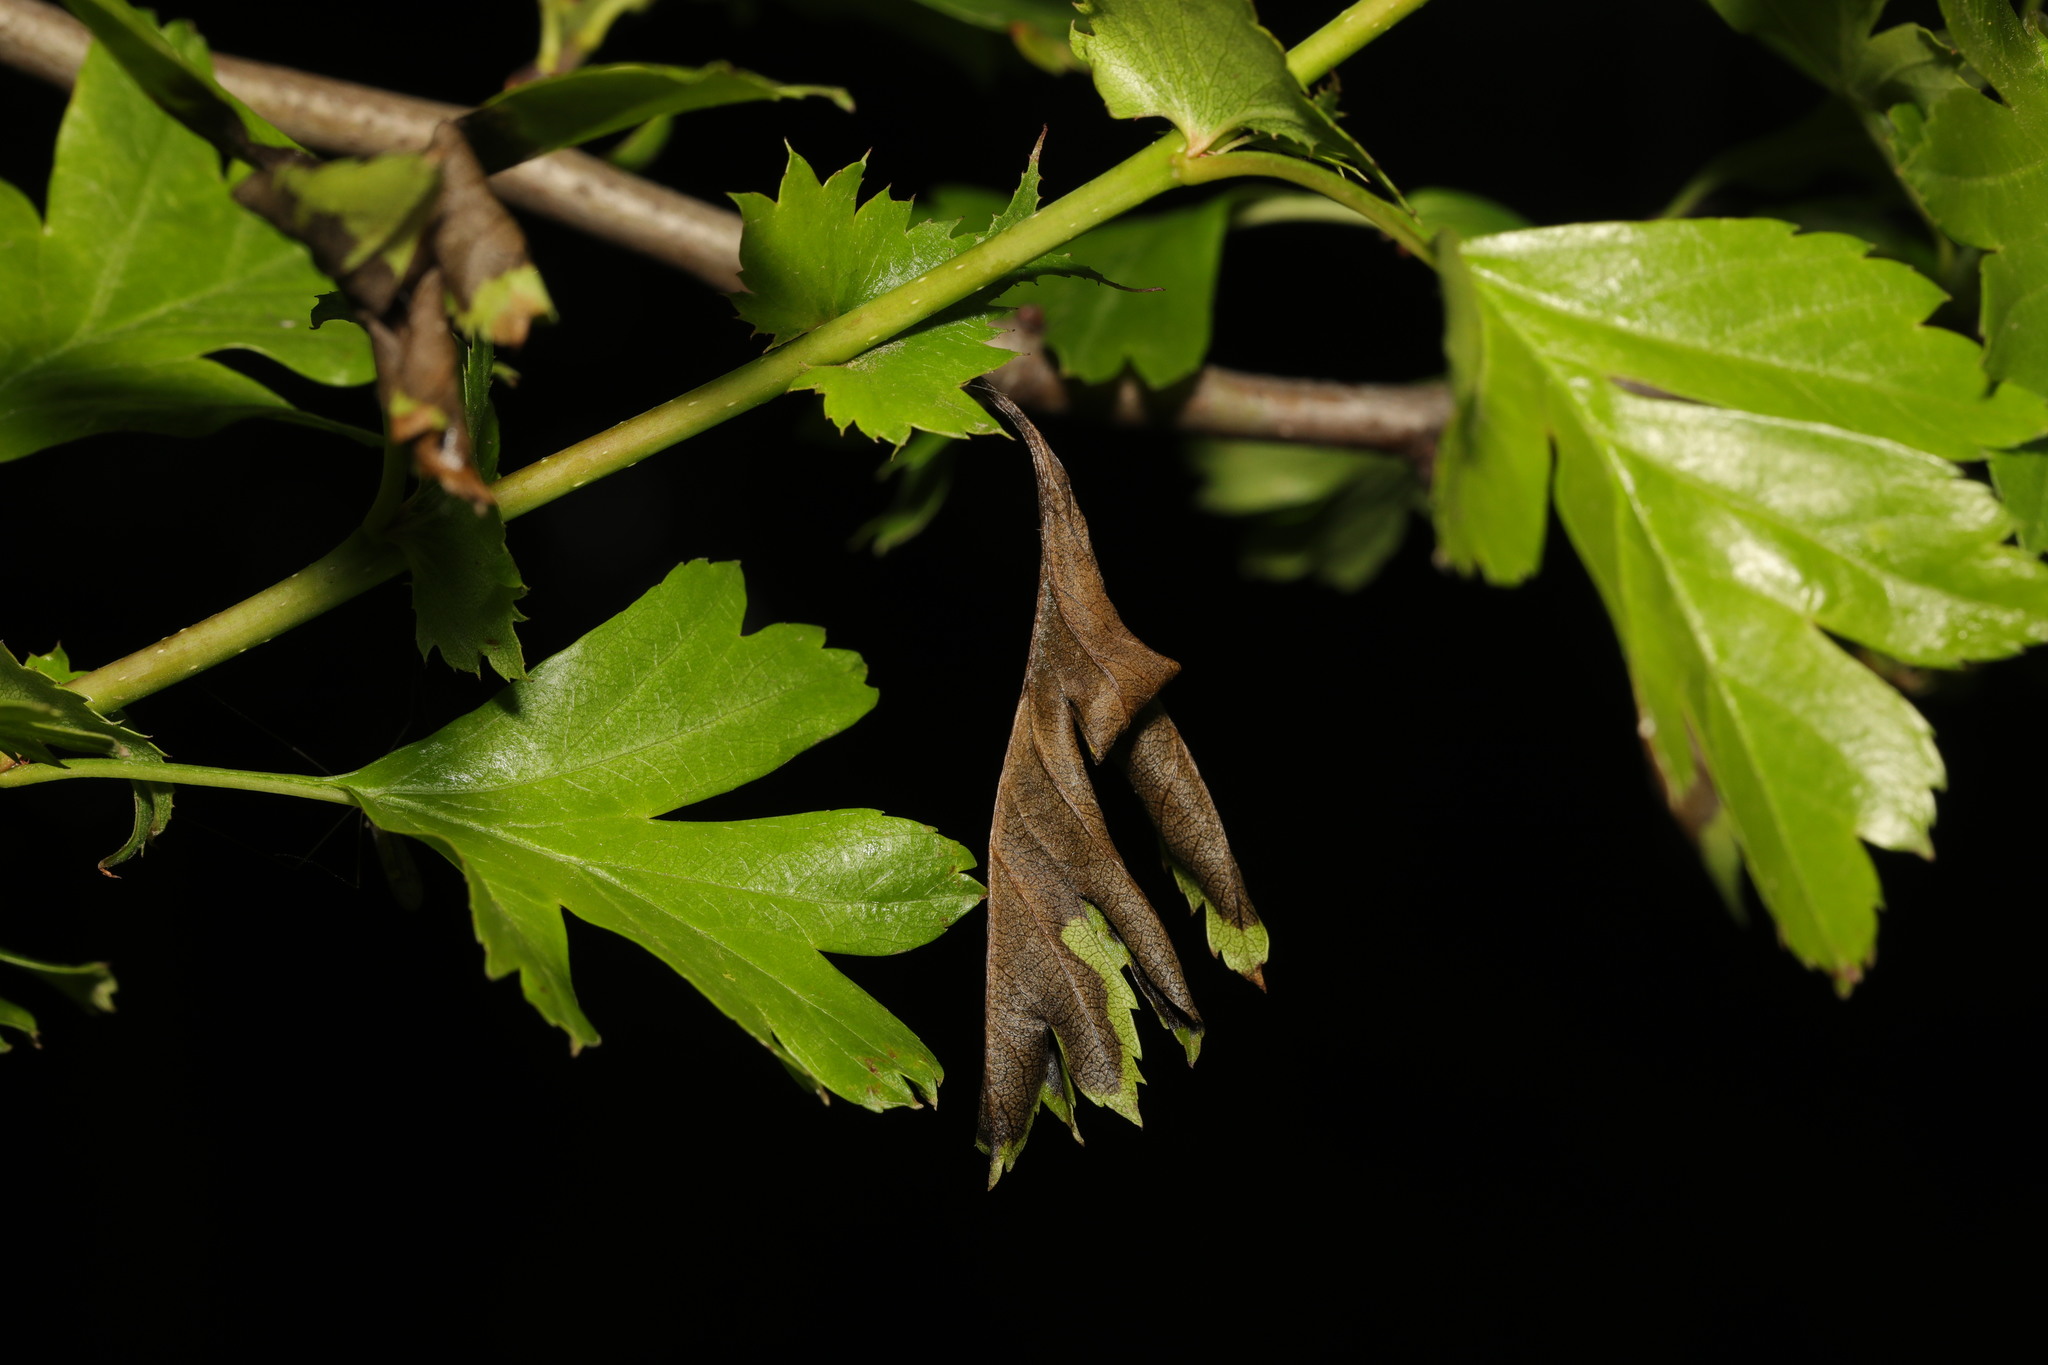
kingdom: Fungi
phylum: Ascomycota
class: Leotiomycetes
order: Helotiales
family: Sclerotiniaceae
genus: Monilinia
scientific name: Monilinia johnsonii
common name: Haw goblet
